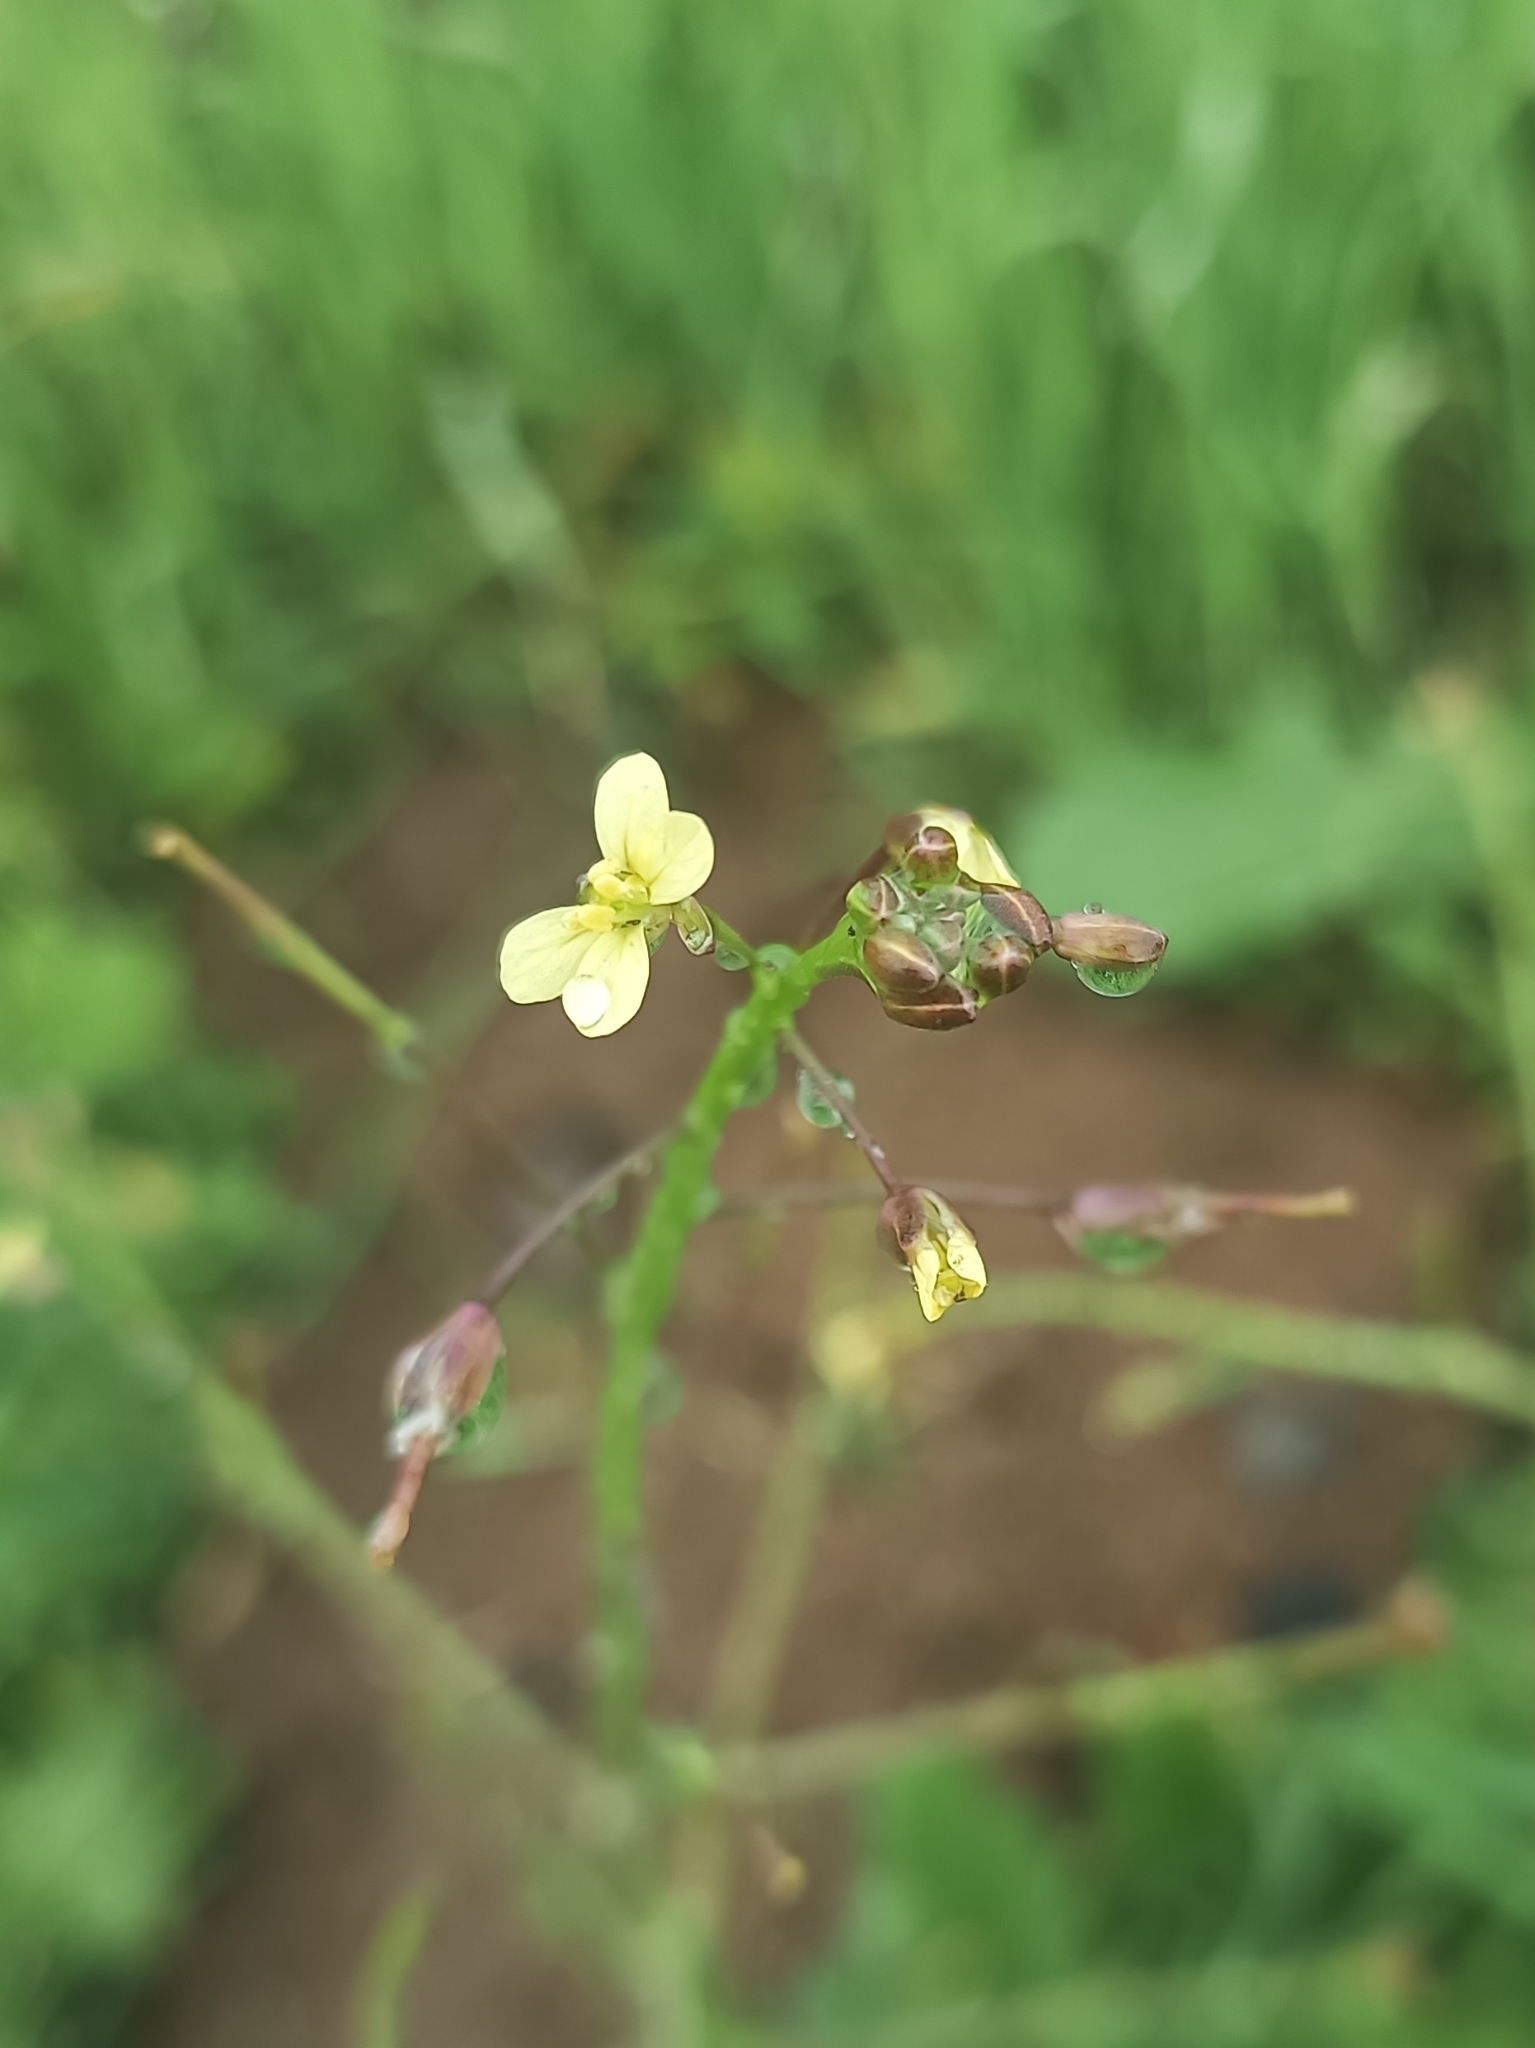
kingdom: Plantae
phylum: Tracheophyta
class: Magnoliopsida
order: Brassicales
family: Brassicaceae
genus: Brassica
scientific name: Brassica tournefortii
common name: Pale cabbage
